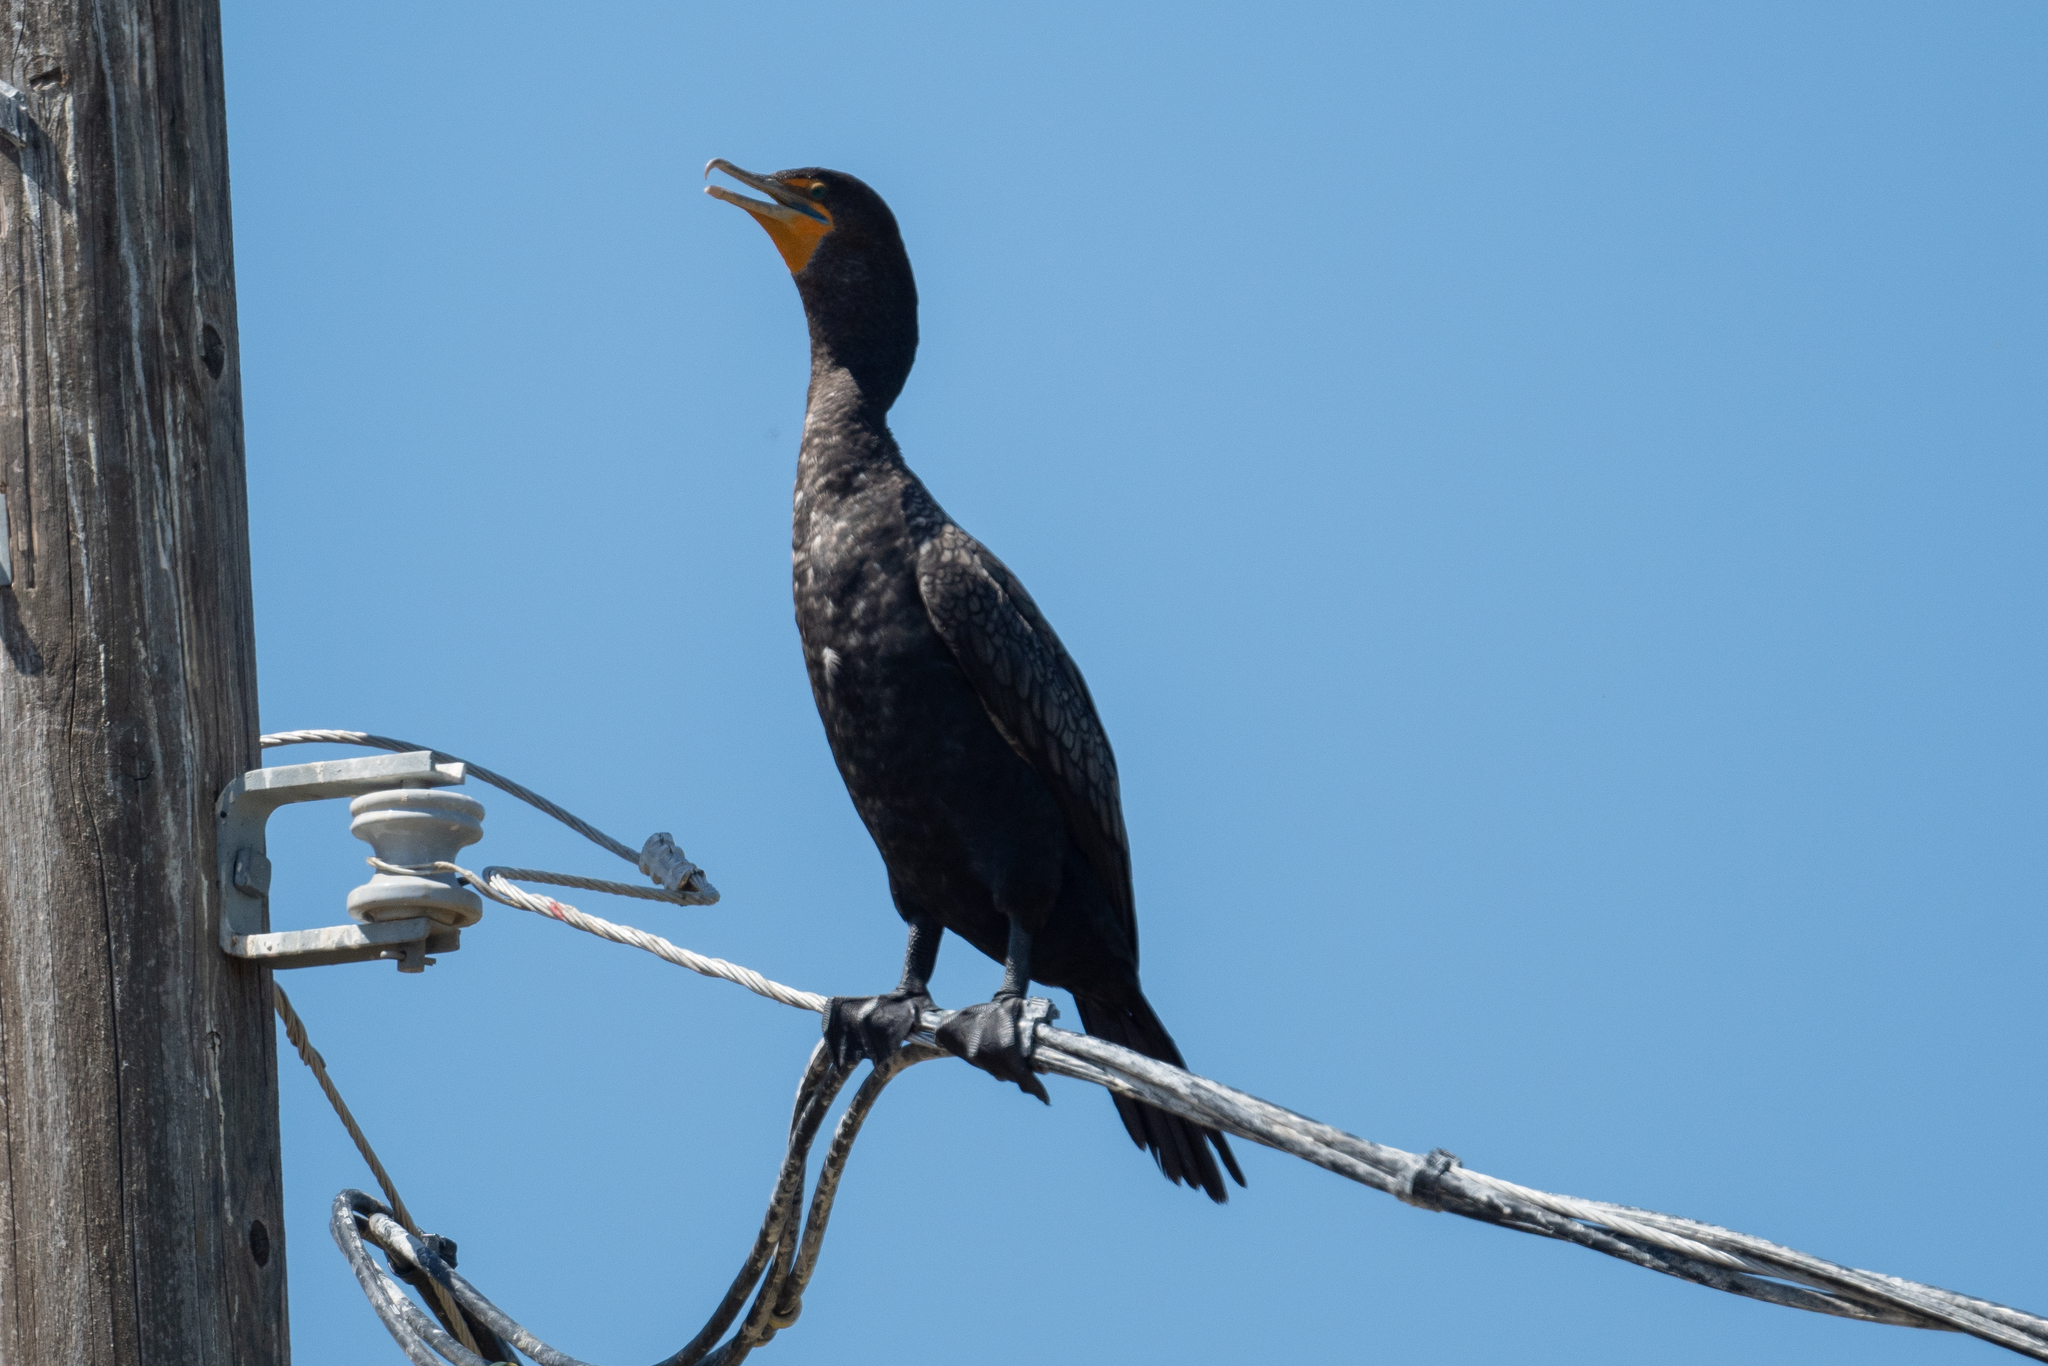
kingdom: Animalia
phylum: Chordata
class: Aves
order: Suliformes
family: Phalacrocoracidae
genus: Phalacrocorax
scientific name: Phalacrocorax auritus
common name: Double-crested cormorant
